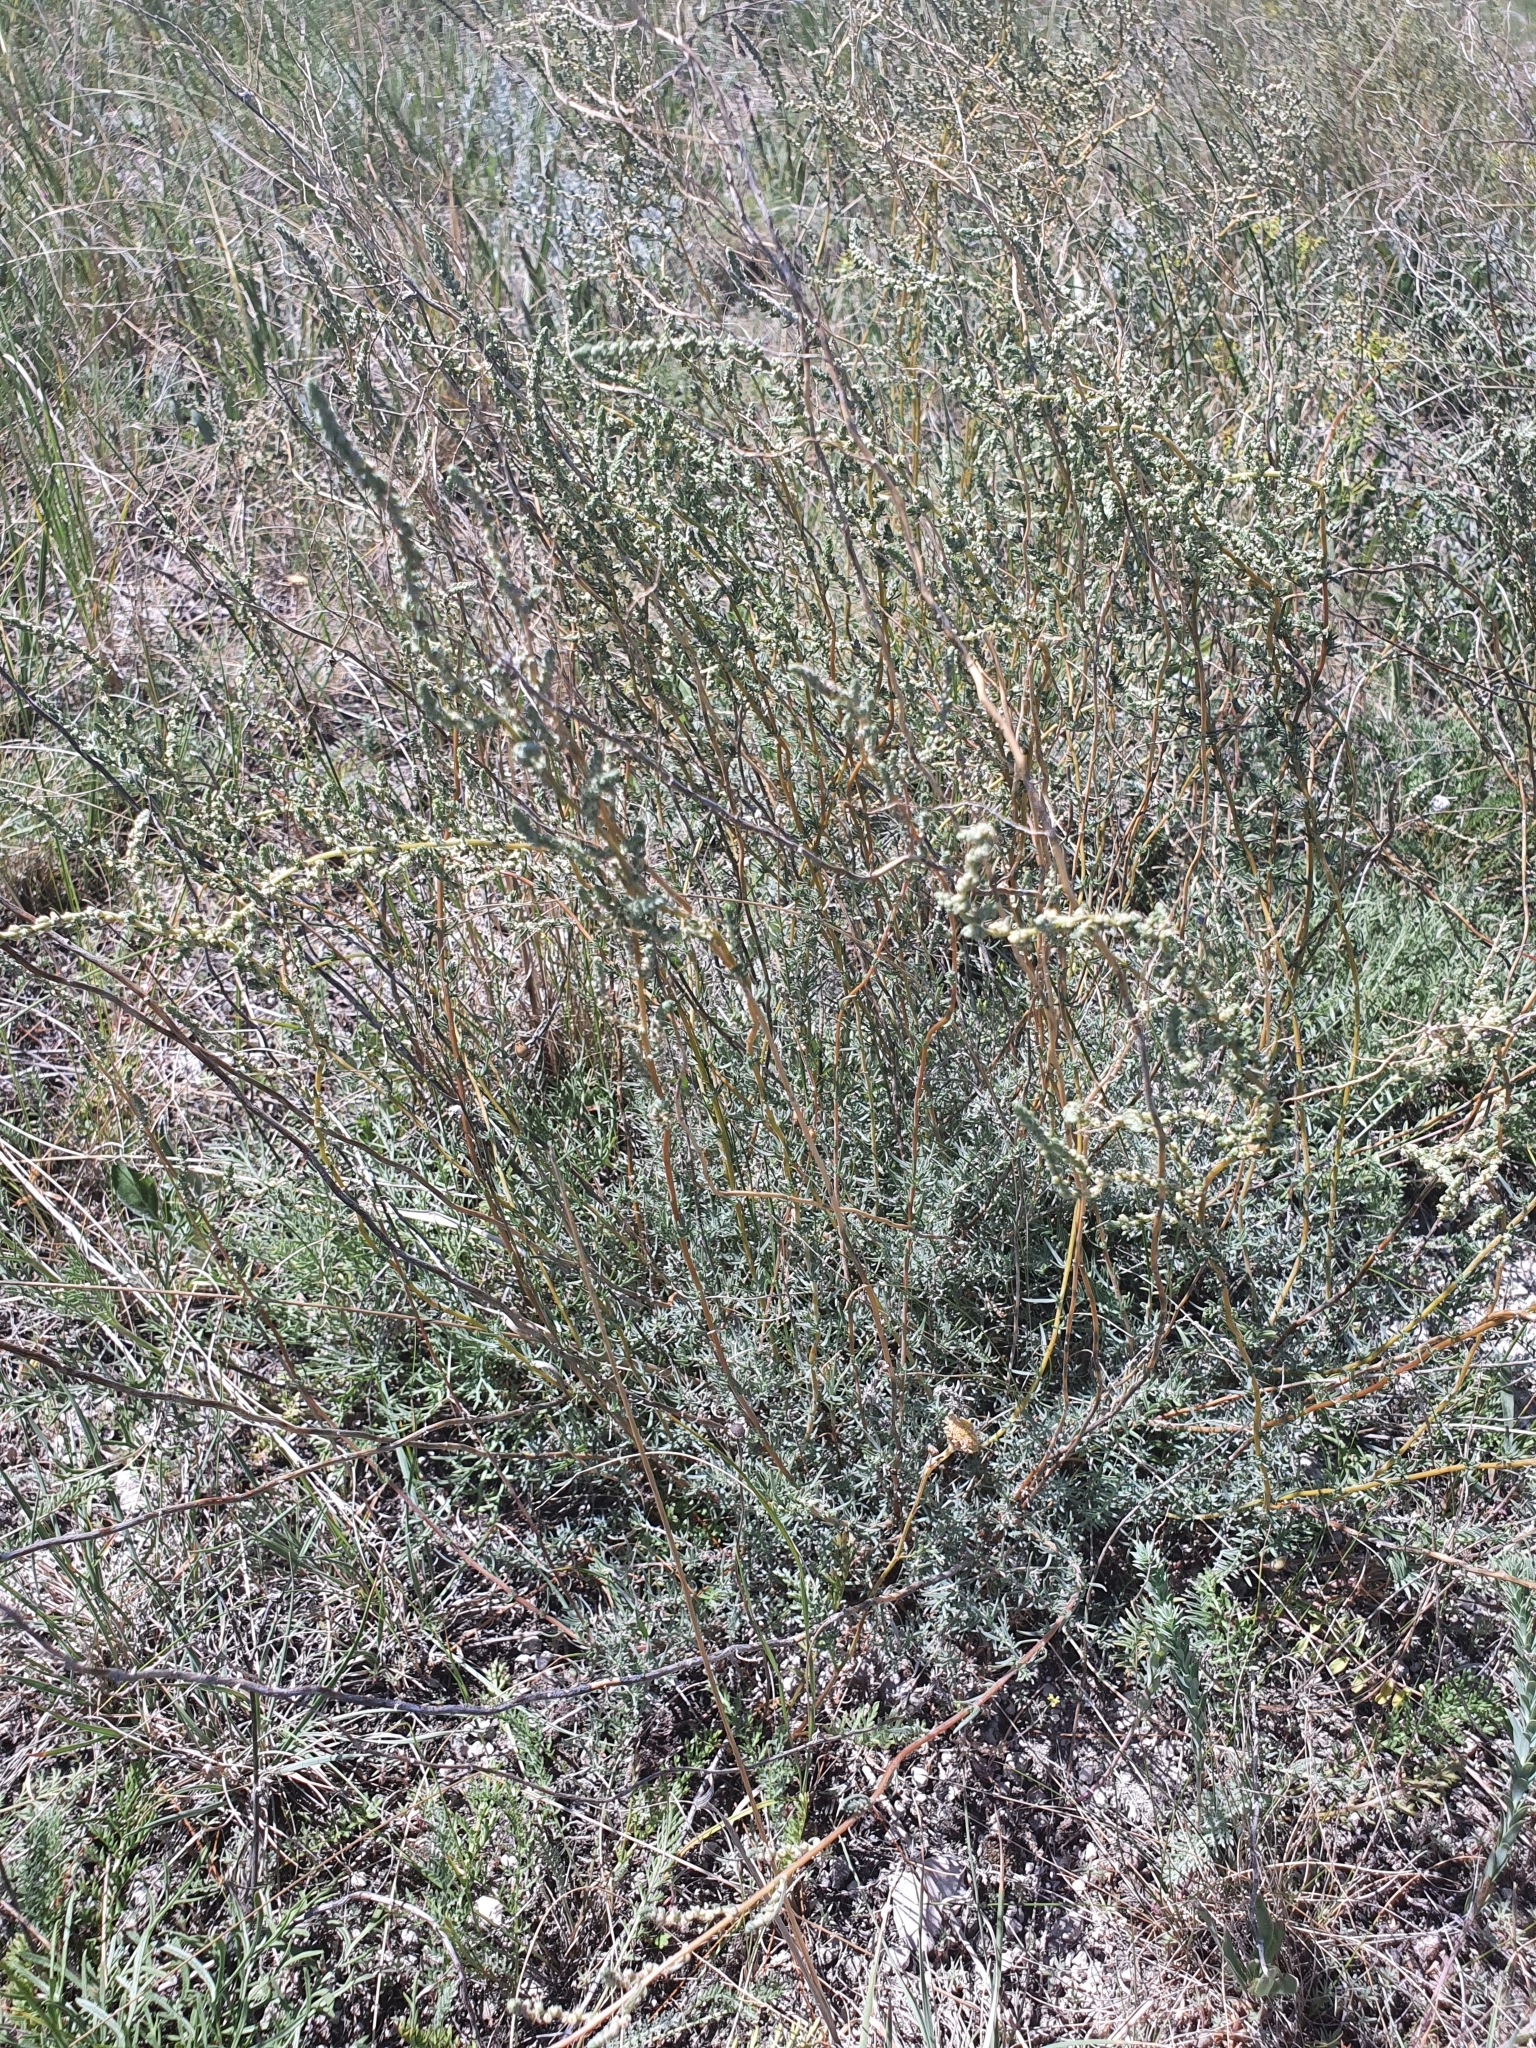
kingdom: Plantae
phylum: Tracheophyta
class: Magnoliopsida
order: Caryophyllales
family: Amaranthaceae
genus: Bassia
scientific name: Bassia prostrata
